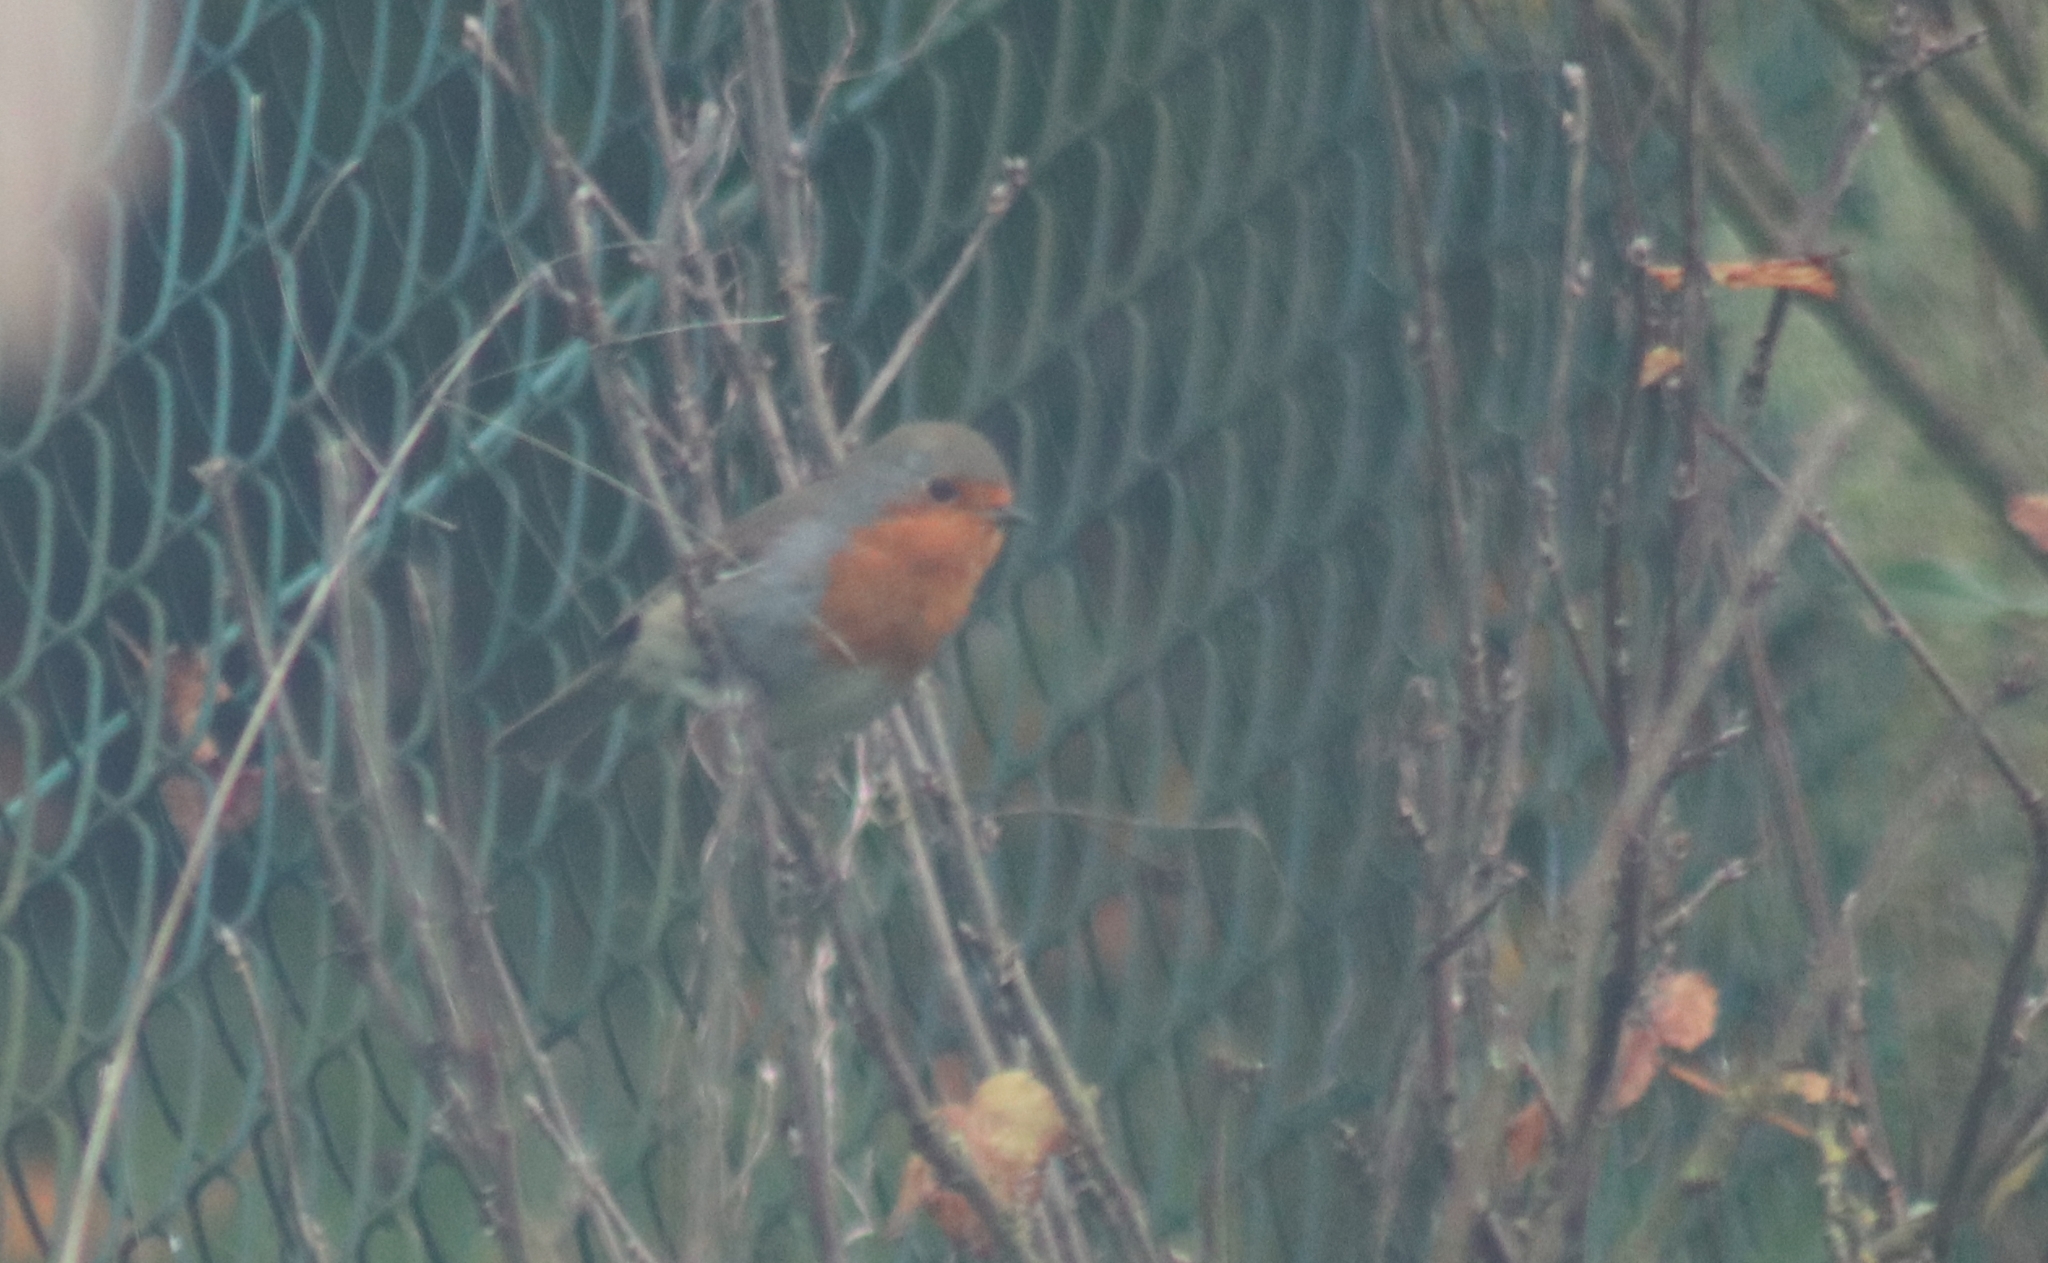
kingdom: Animalia
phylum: Chordata
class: Aves
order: Passeriformes
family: Muscicapidae
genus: Erithacus
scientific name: Erithacus rubecula
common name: European robin
